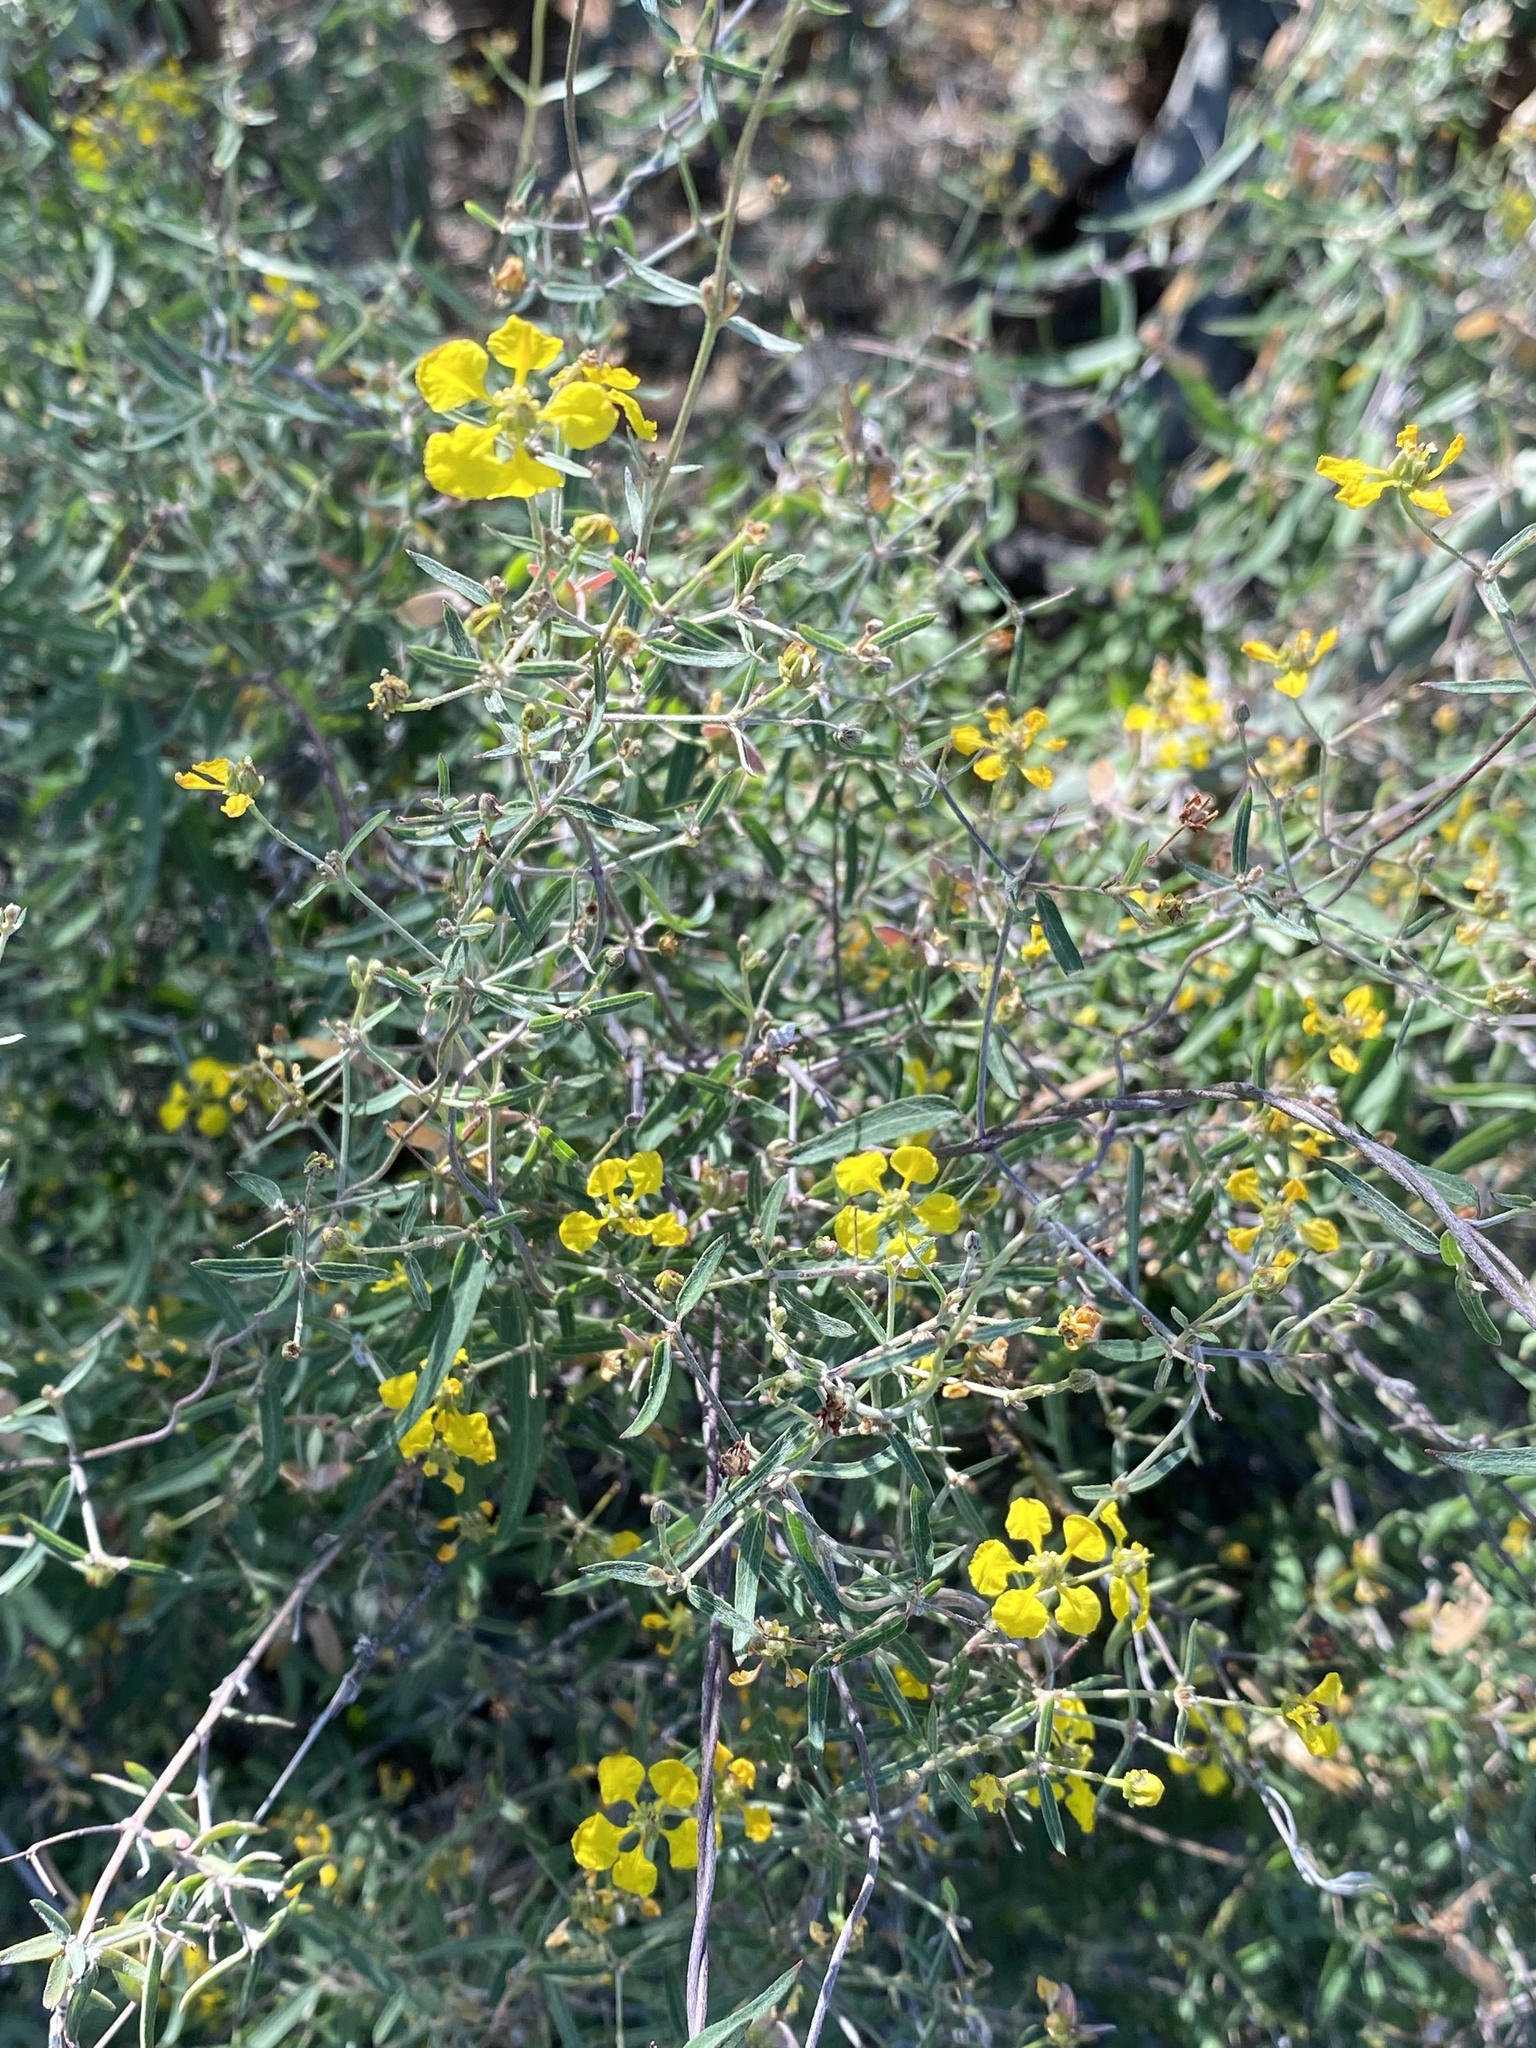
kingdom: Plantae
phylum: Tracheophyta
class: Magnoliopsida
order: Malpighiales
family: Malpighiaceae
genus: Cottsia
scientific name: Cottsia gracilis
